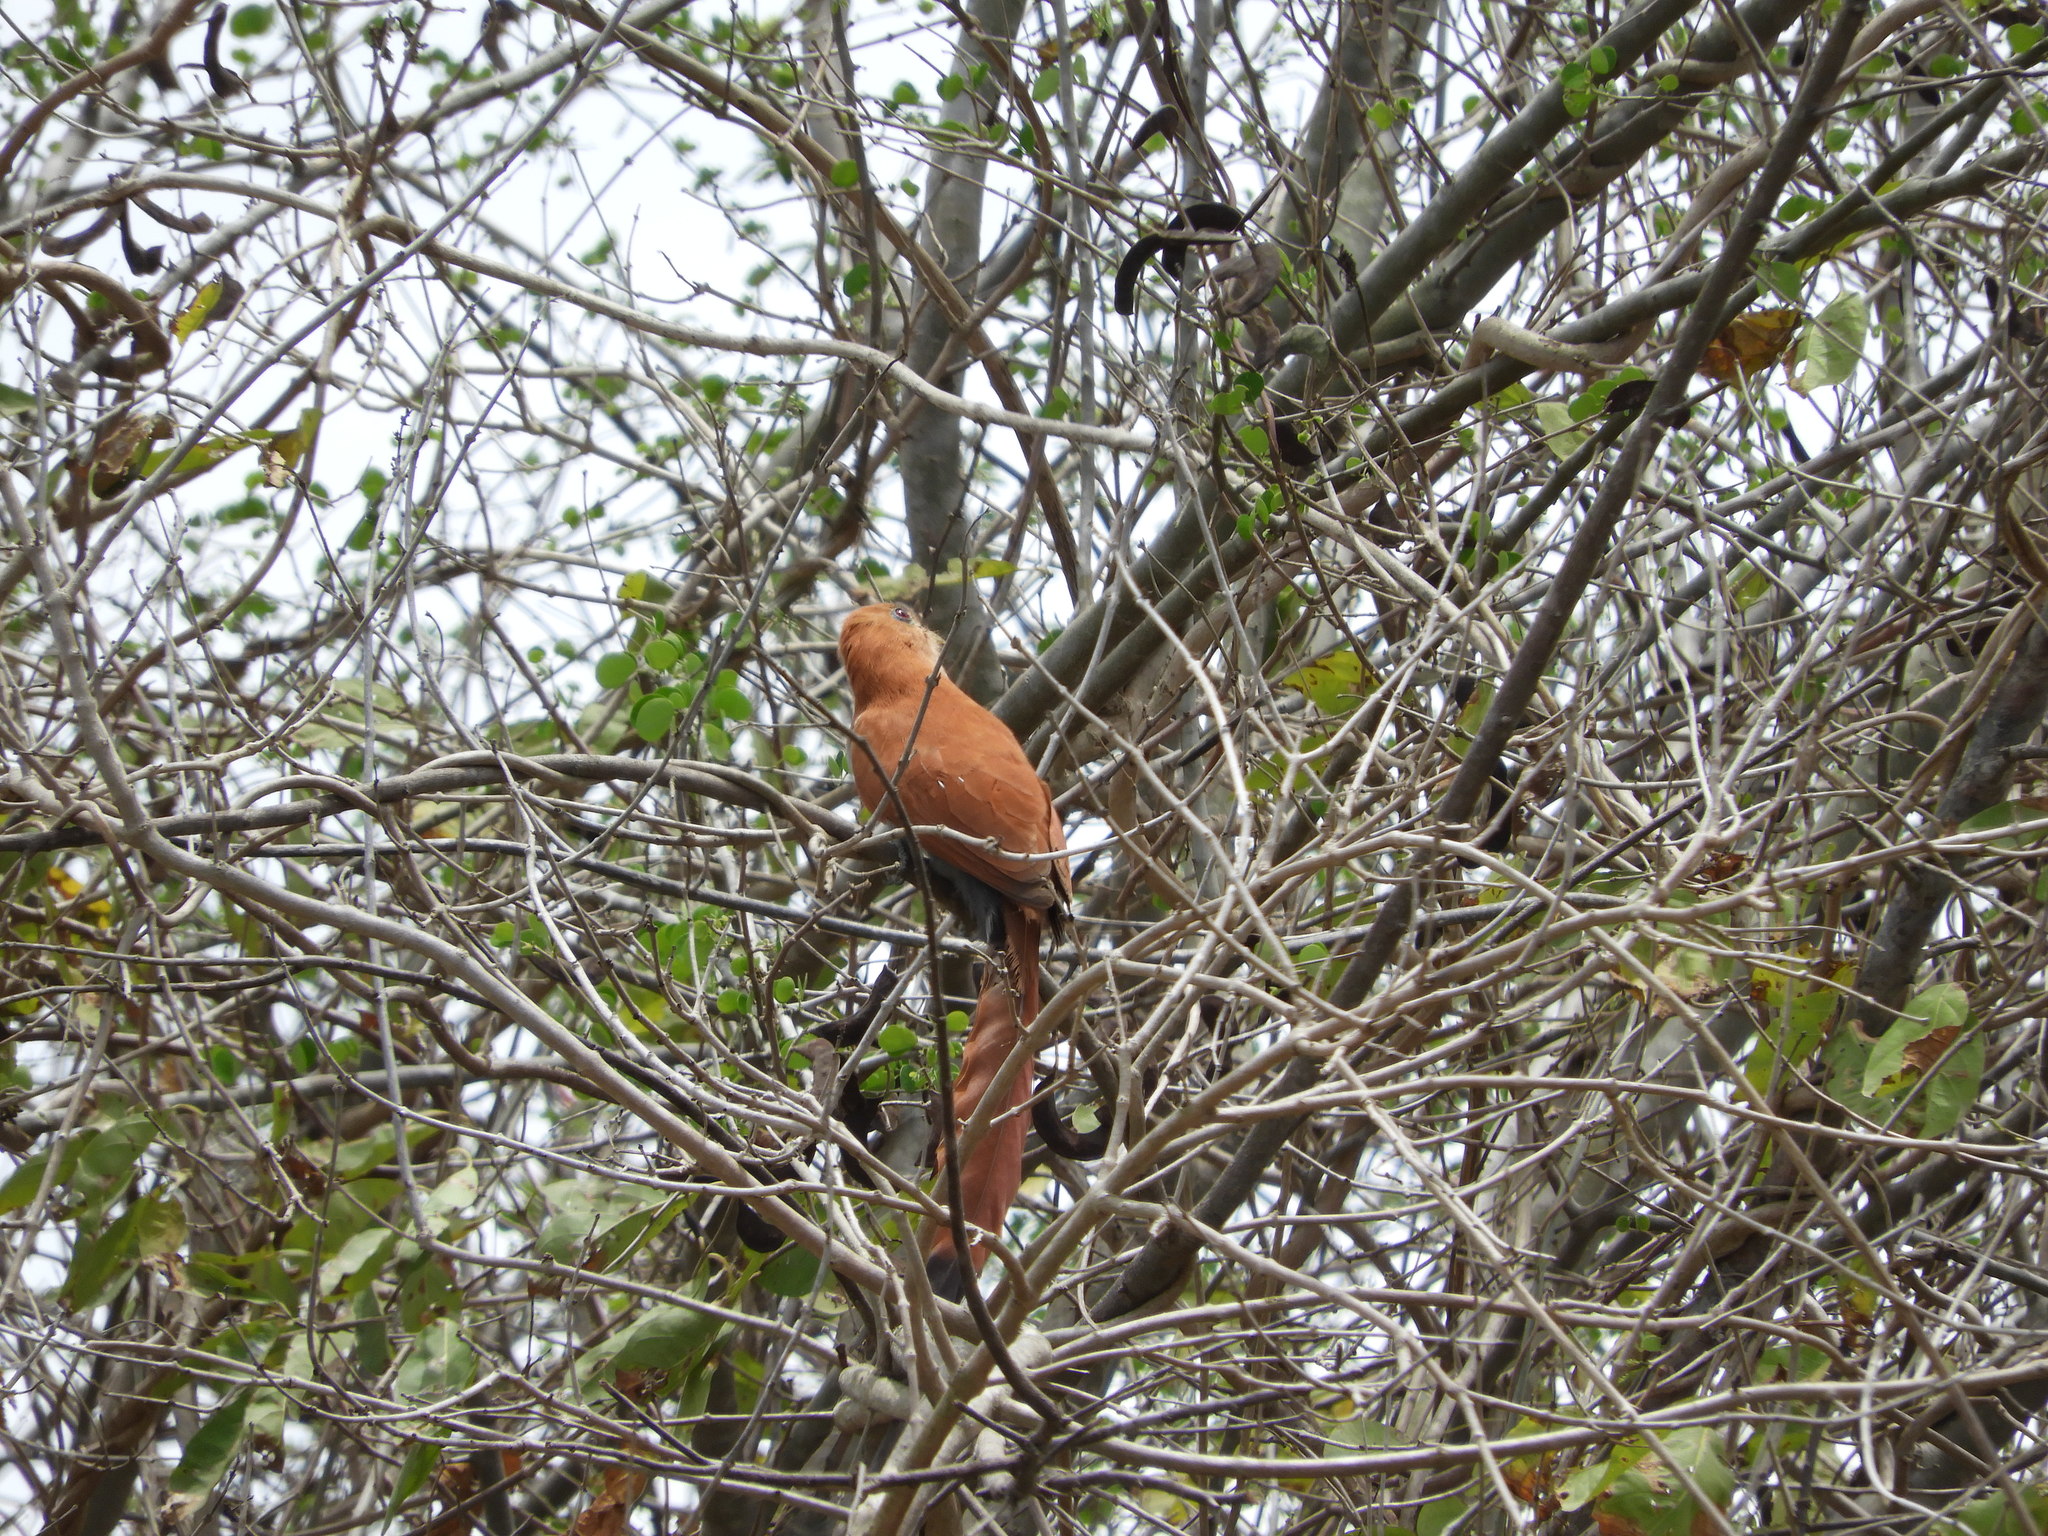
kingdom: Animalia
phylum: Chordata
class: Aves
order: Cuculiformes
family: Cuculidae
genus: Piaya
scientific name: Piaya cayana
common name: Squirrel cuckoo
